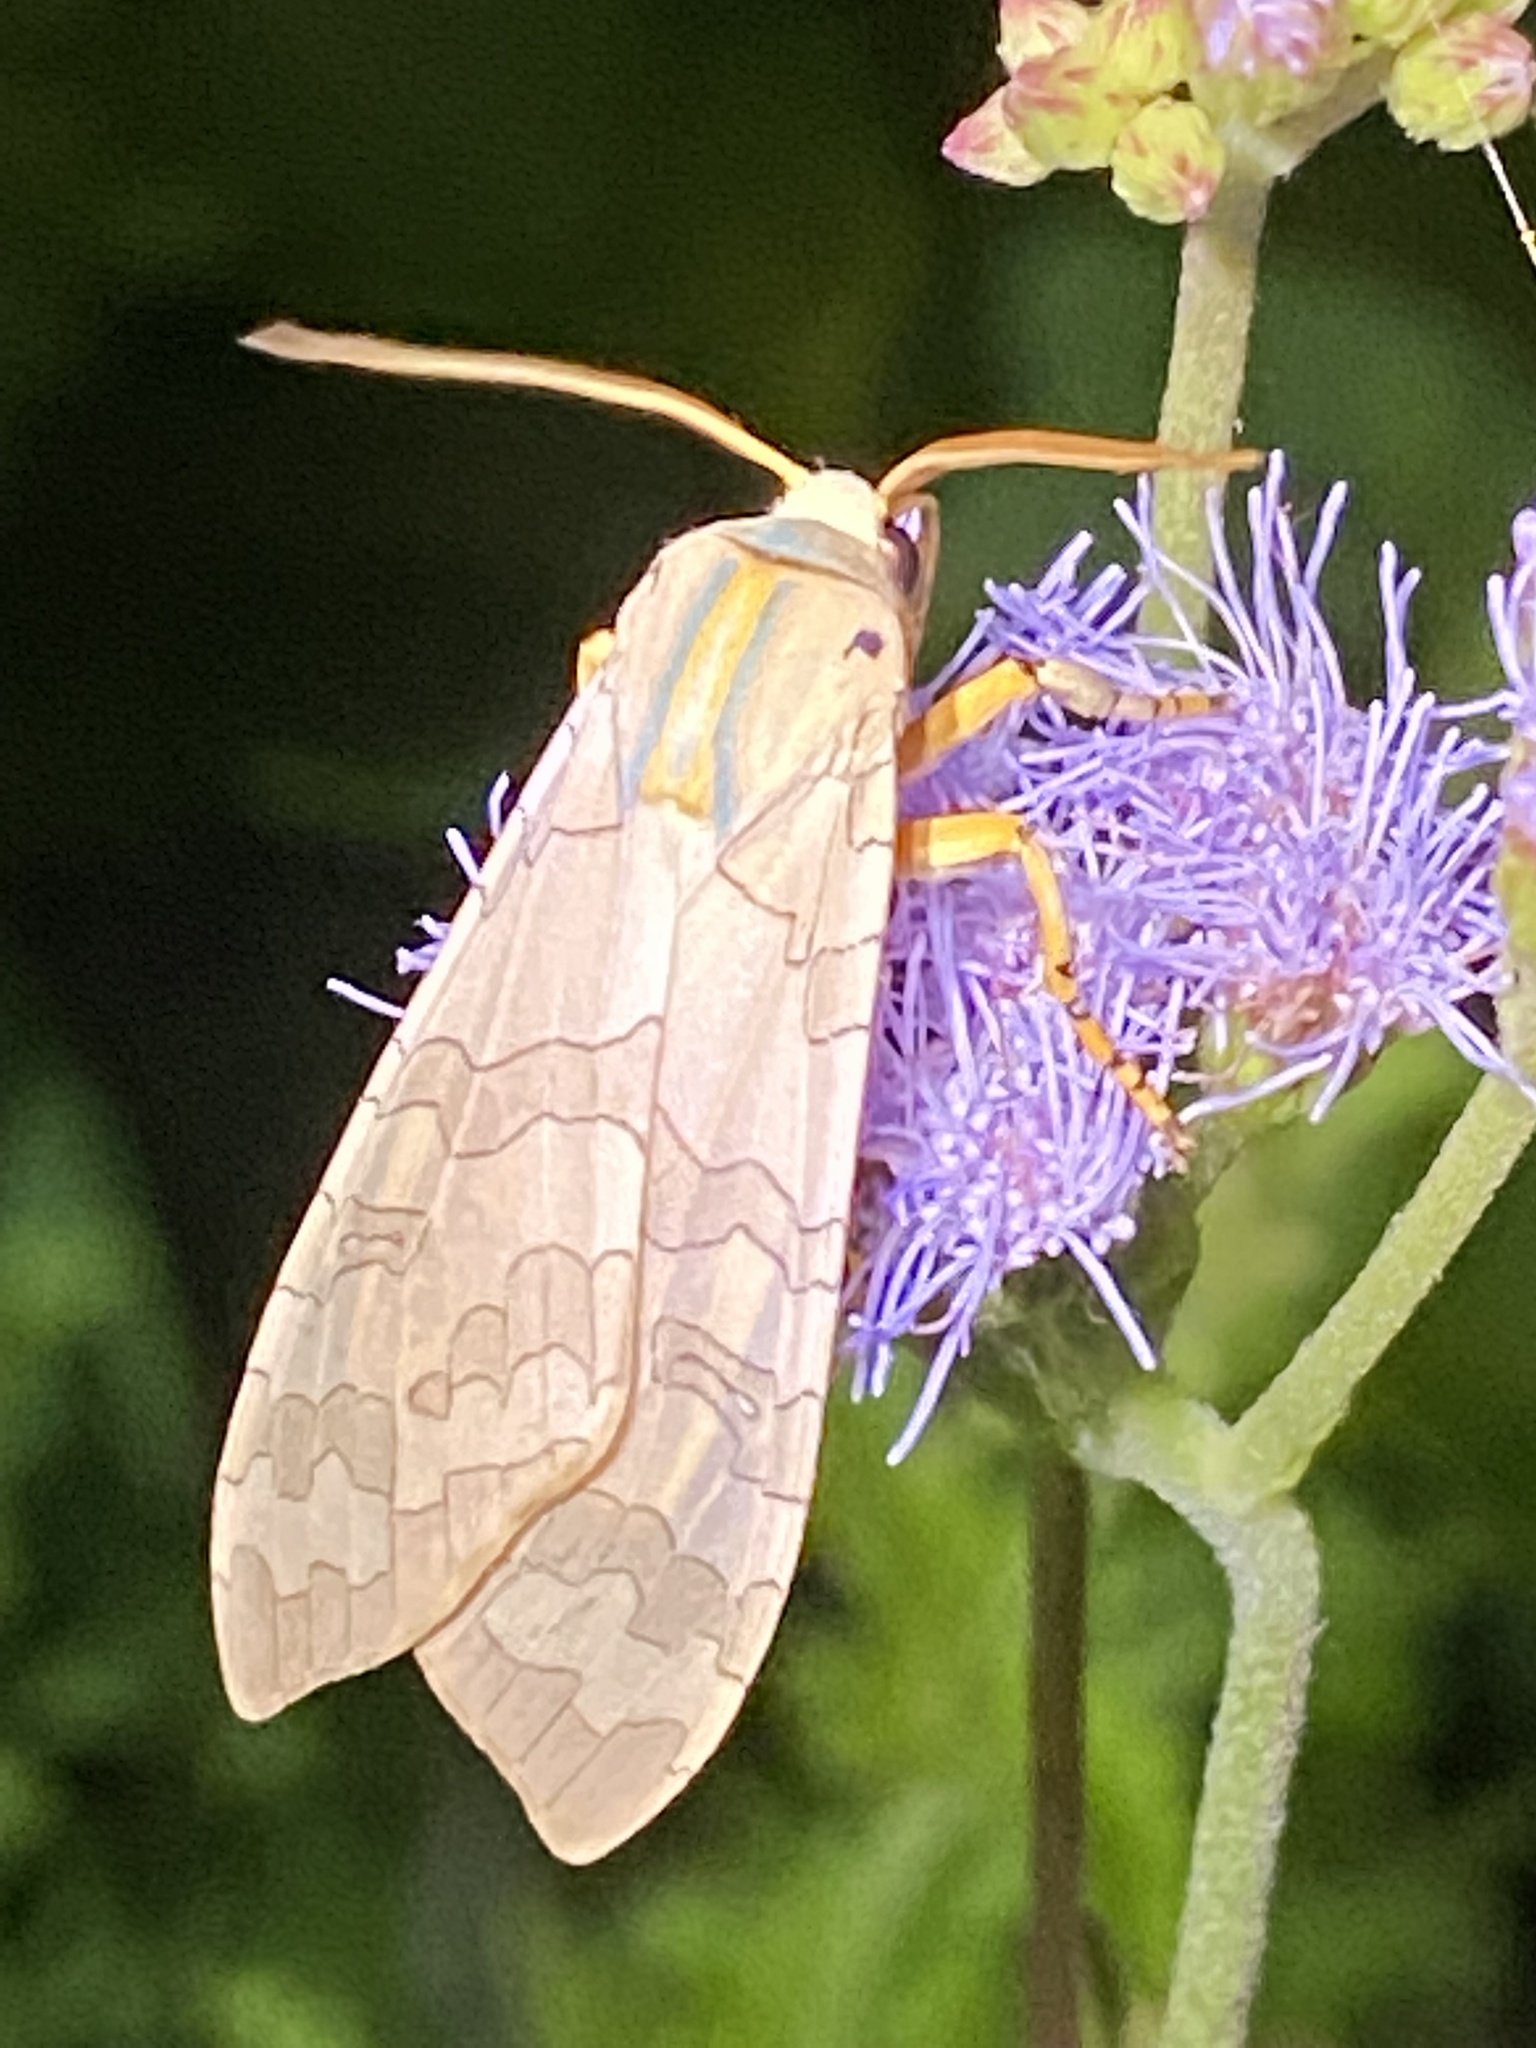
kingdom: Animalia
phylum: Arthropoda
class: Insecta
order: Lepidoptera
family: Erebidae
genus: Halysidota
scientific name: Halysidota
